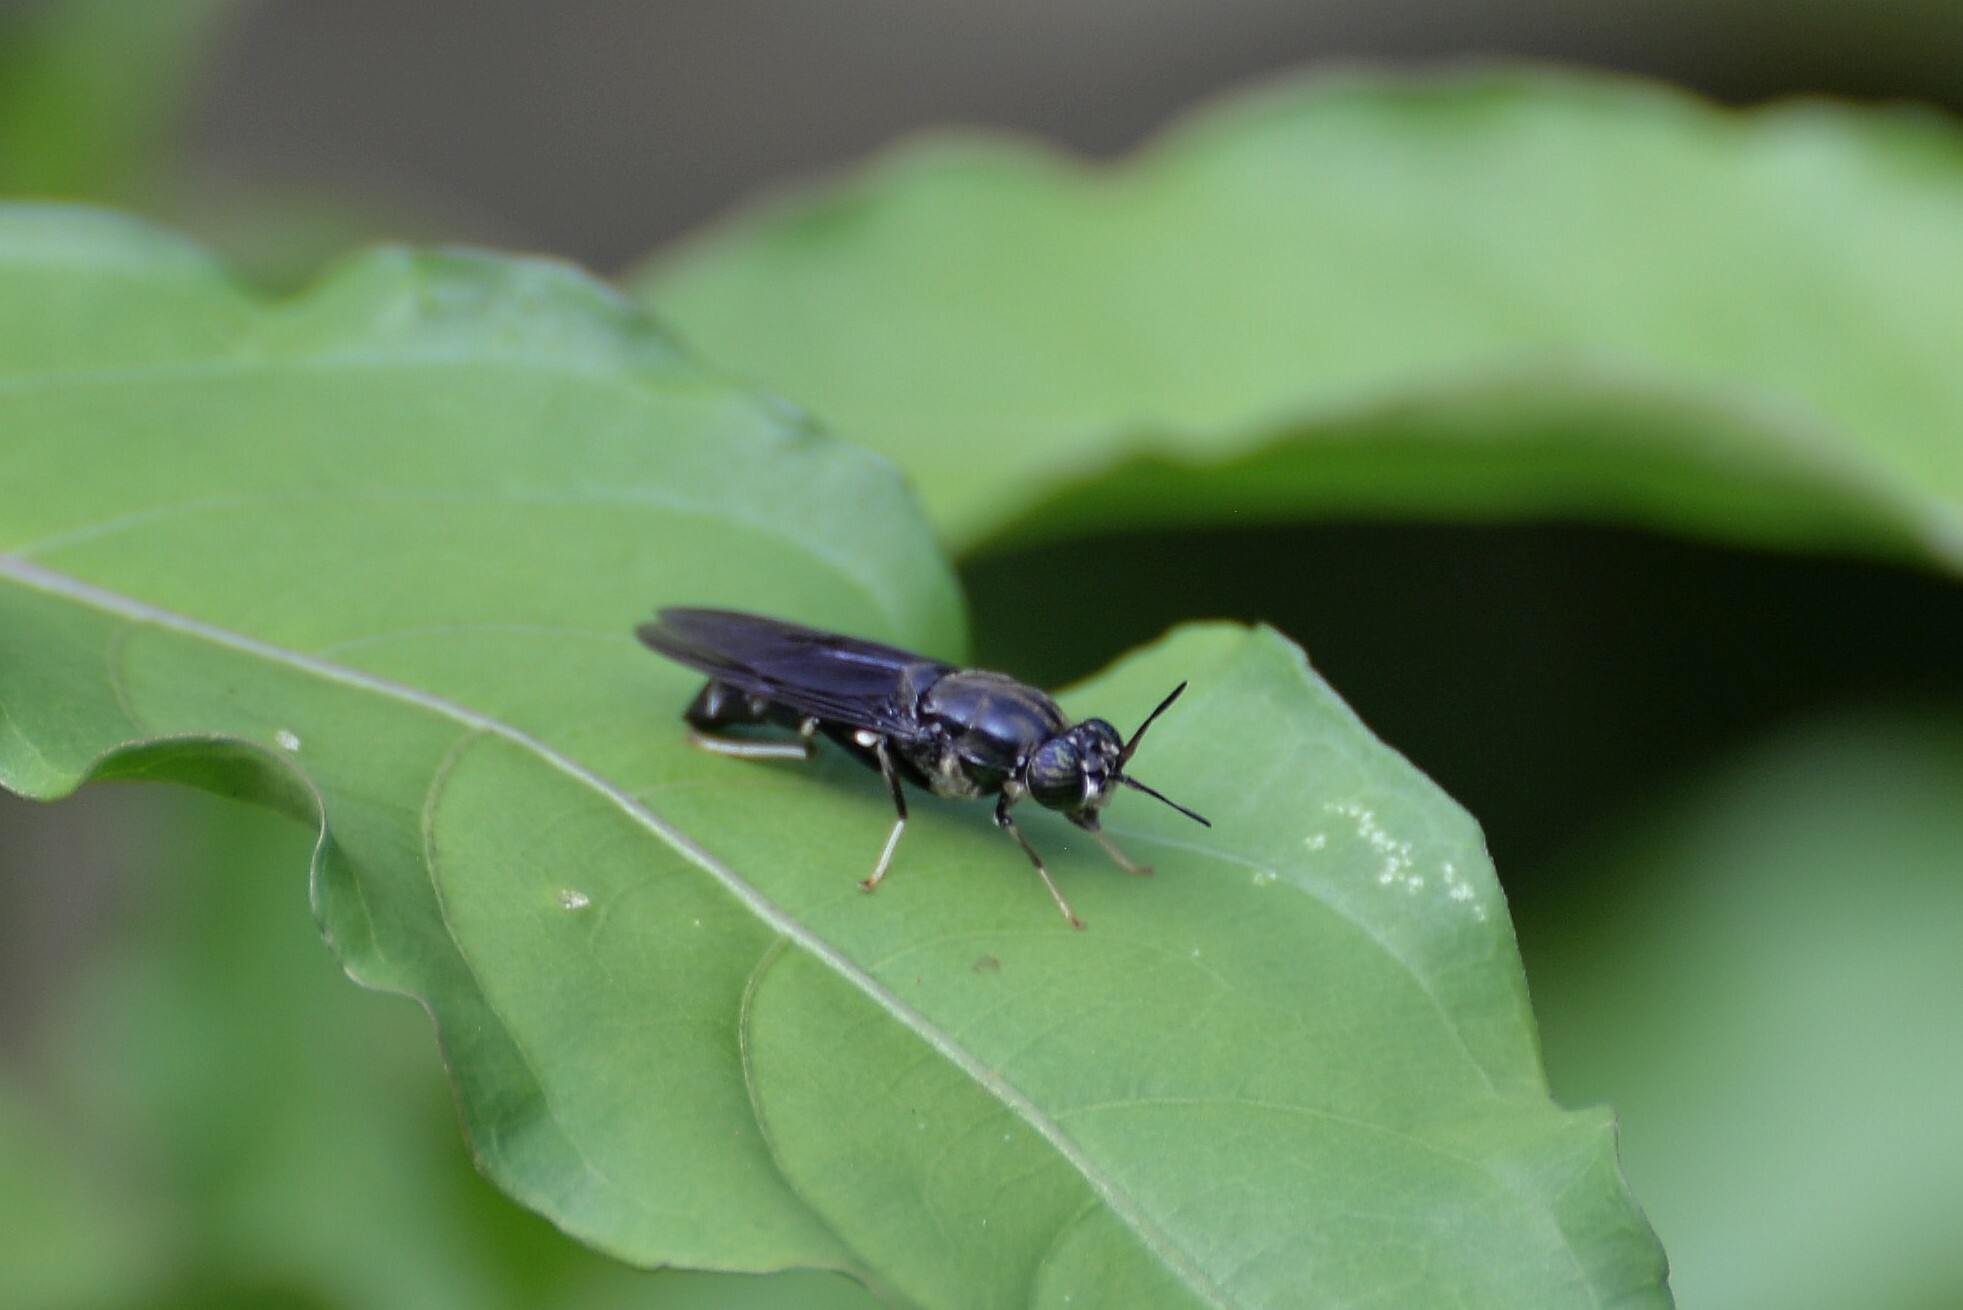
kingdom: Animalia
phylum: Arthropoda
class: Insecta
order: Diptera
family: Stratiomyidae
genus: Hermetia
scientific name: Hermetia illucens
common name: Black soldier fly
